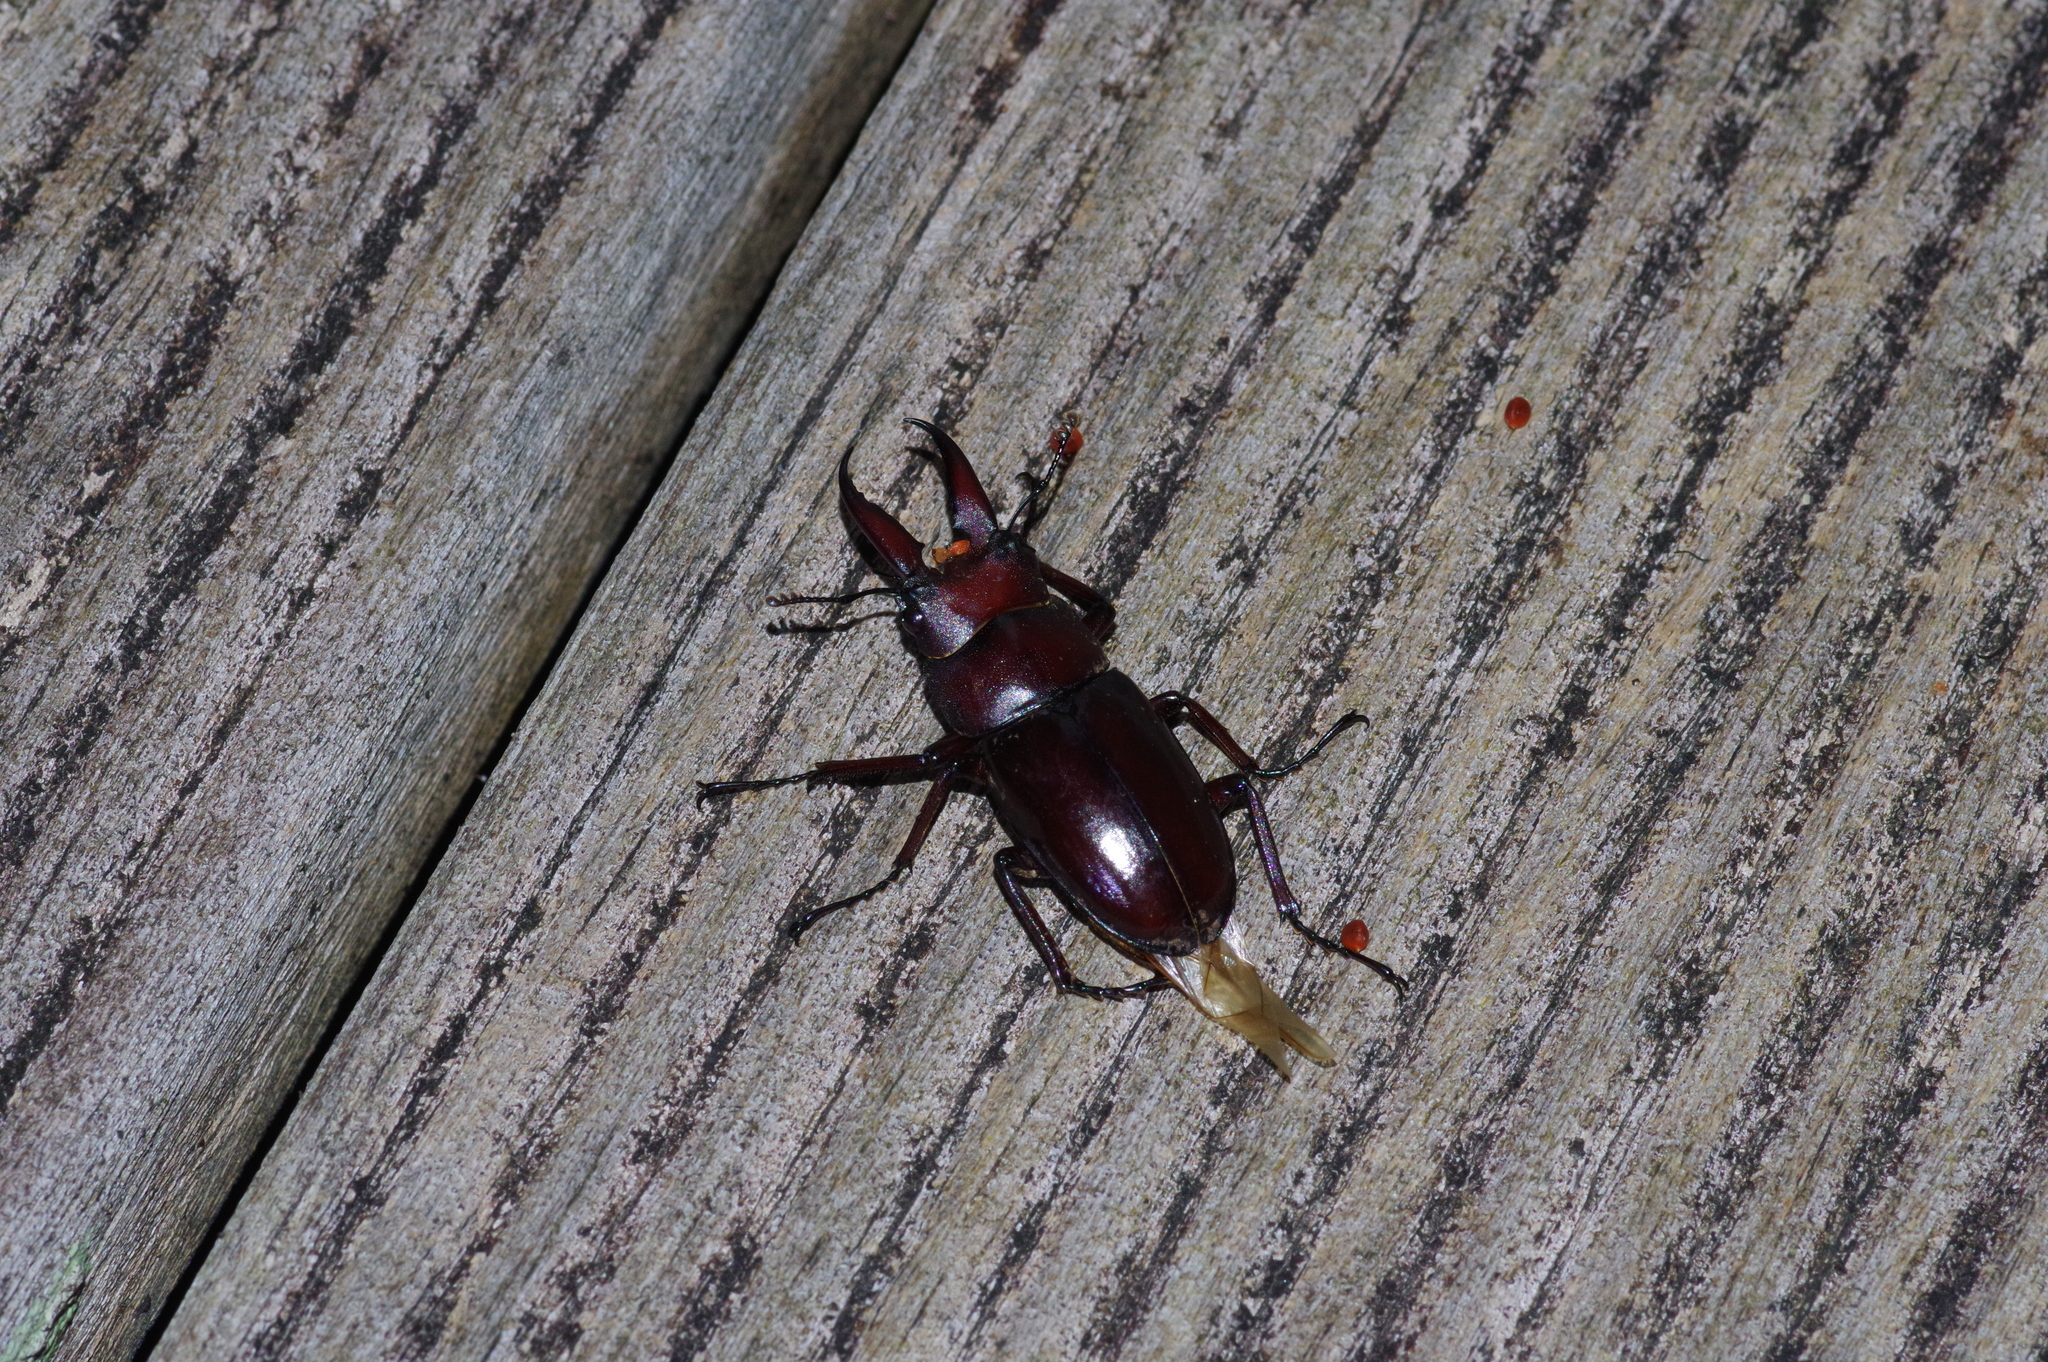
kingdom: Animalia
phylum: Arthropoda
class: Insecta
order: Coleoptera
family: Lucanidae
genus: Prosopocoilus
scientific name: Prosopocoilus dissimilis
